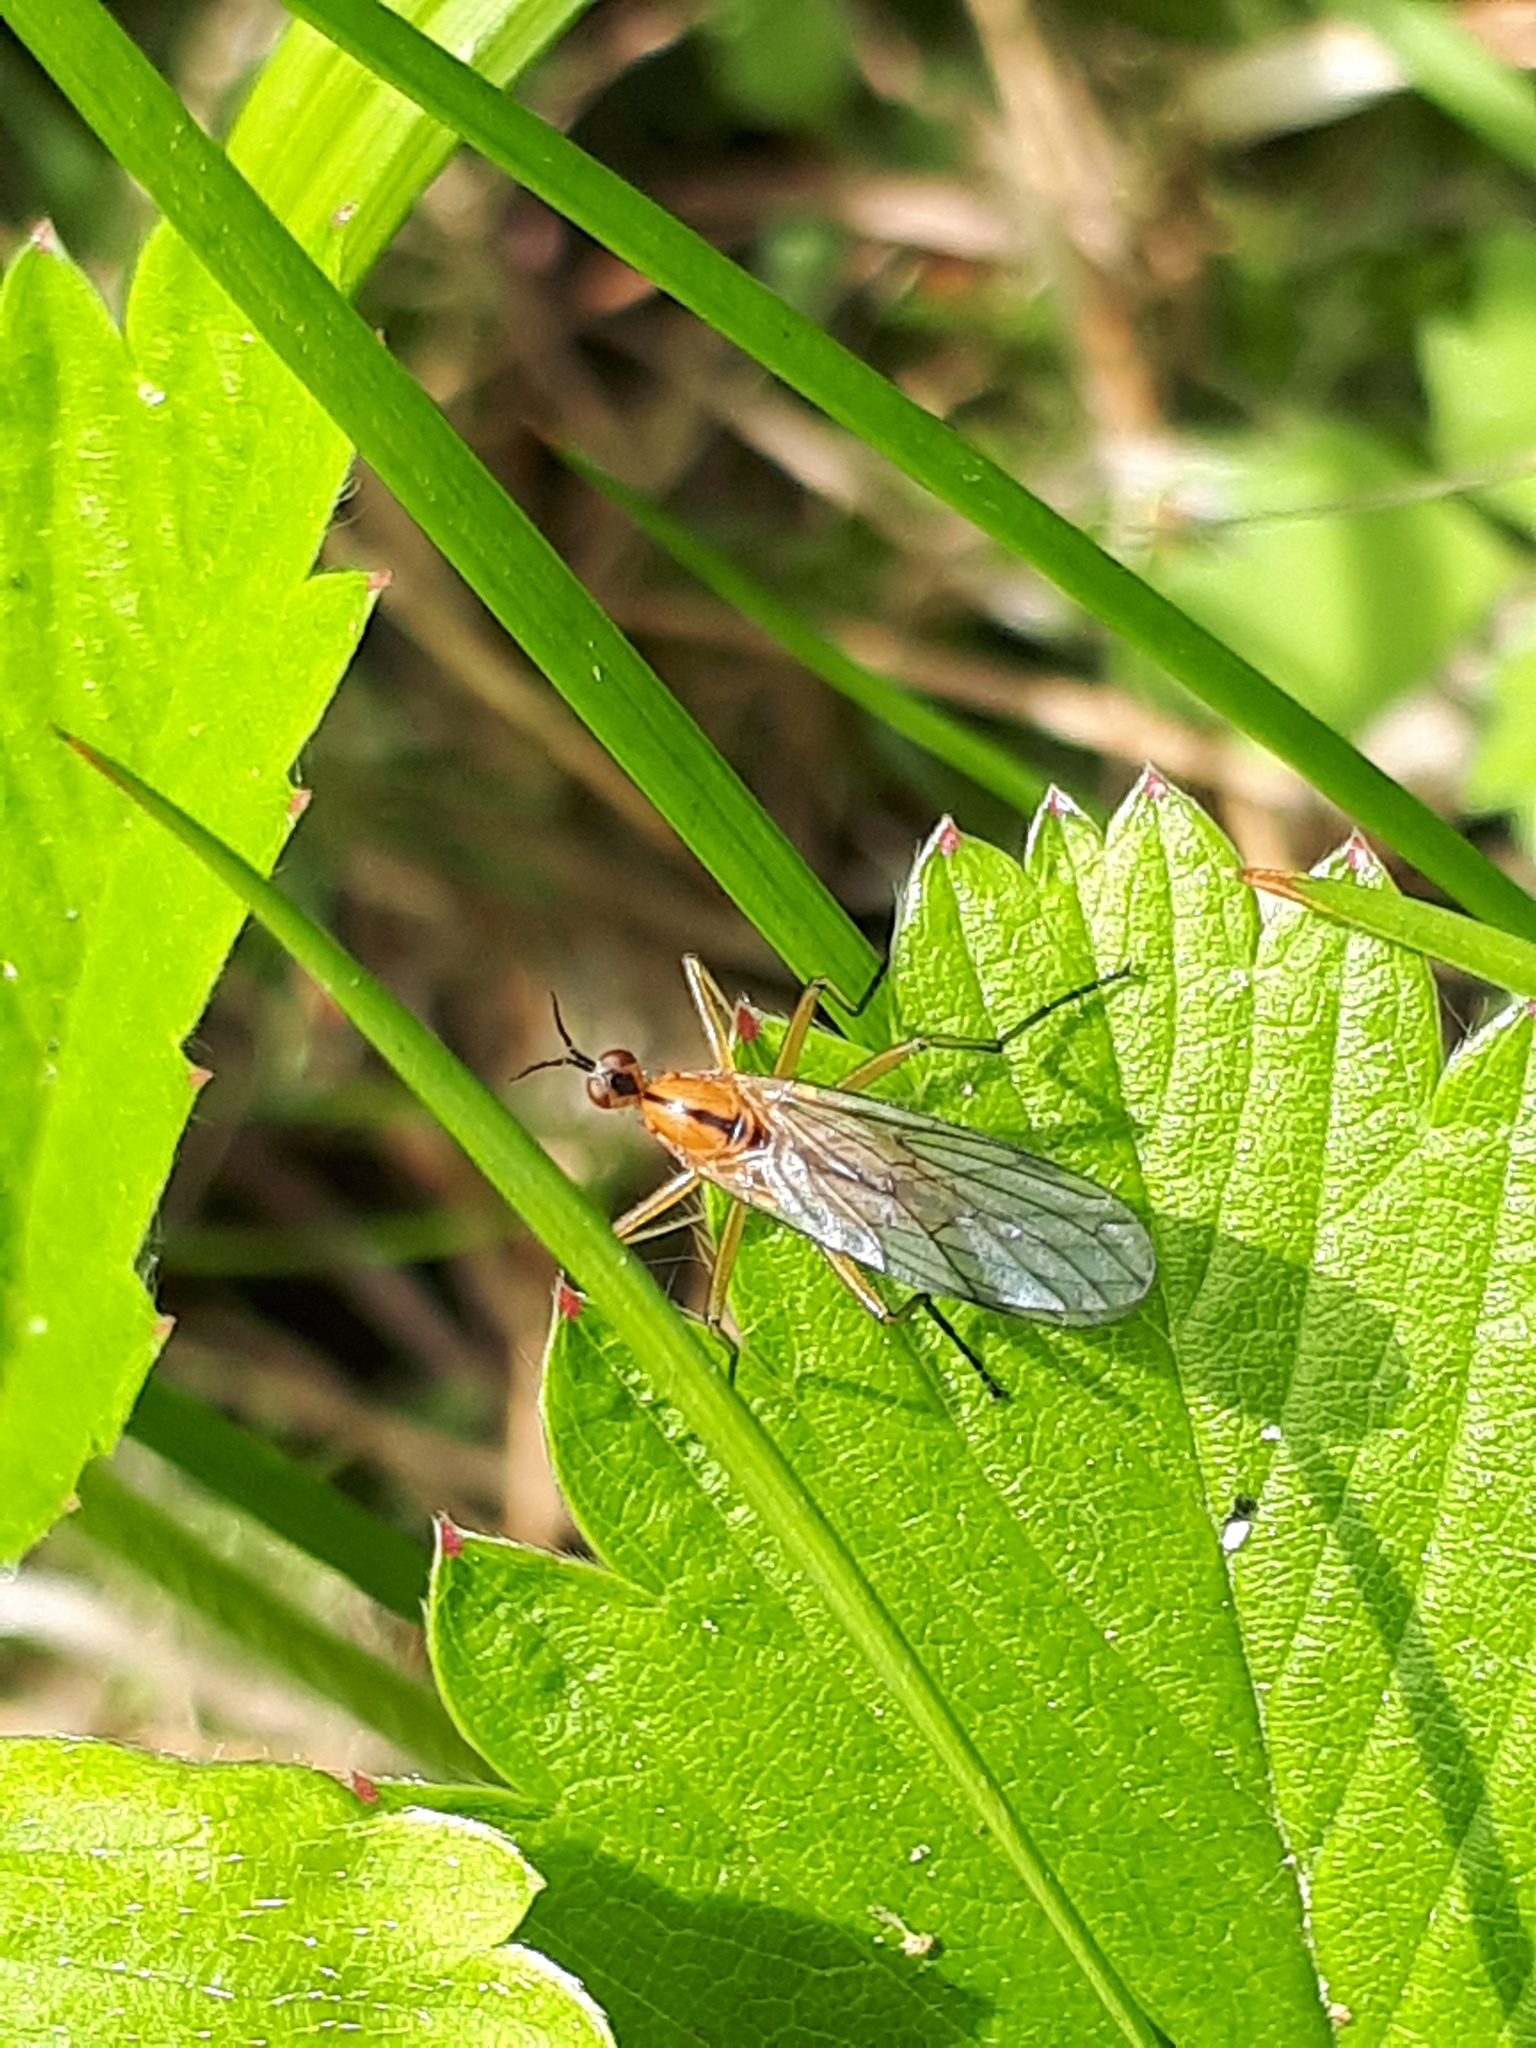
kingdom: Animalia
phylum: Arthropoda
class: Insecta
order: Diptera
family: Empididae
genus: Empis
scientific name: Empis stercorea
